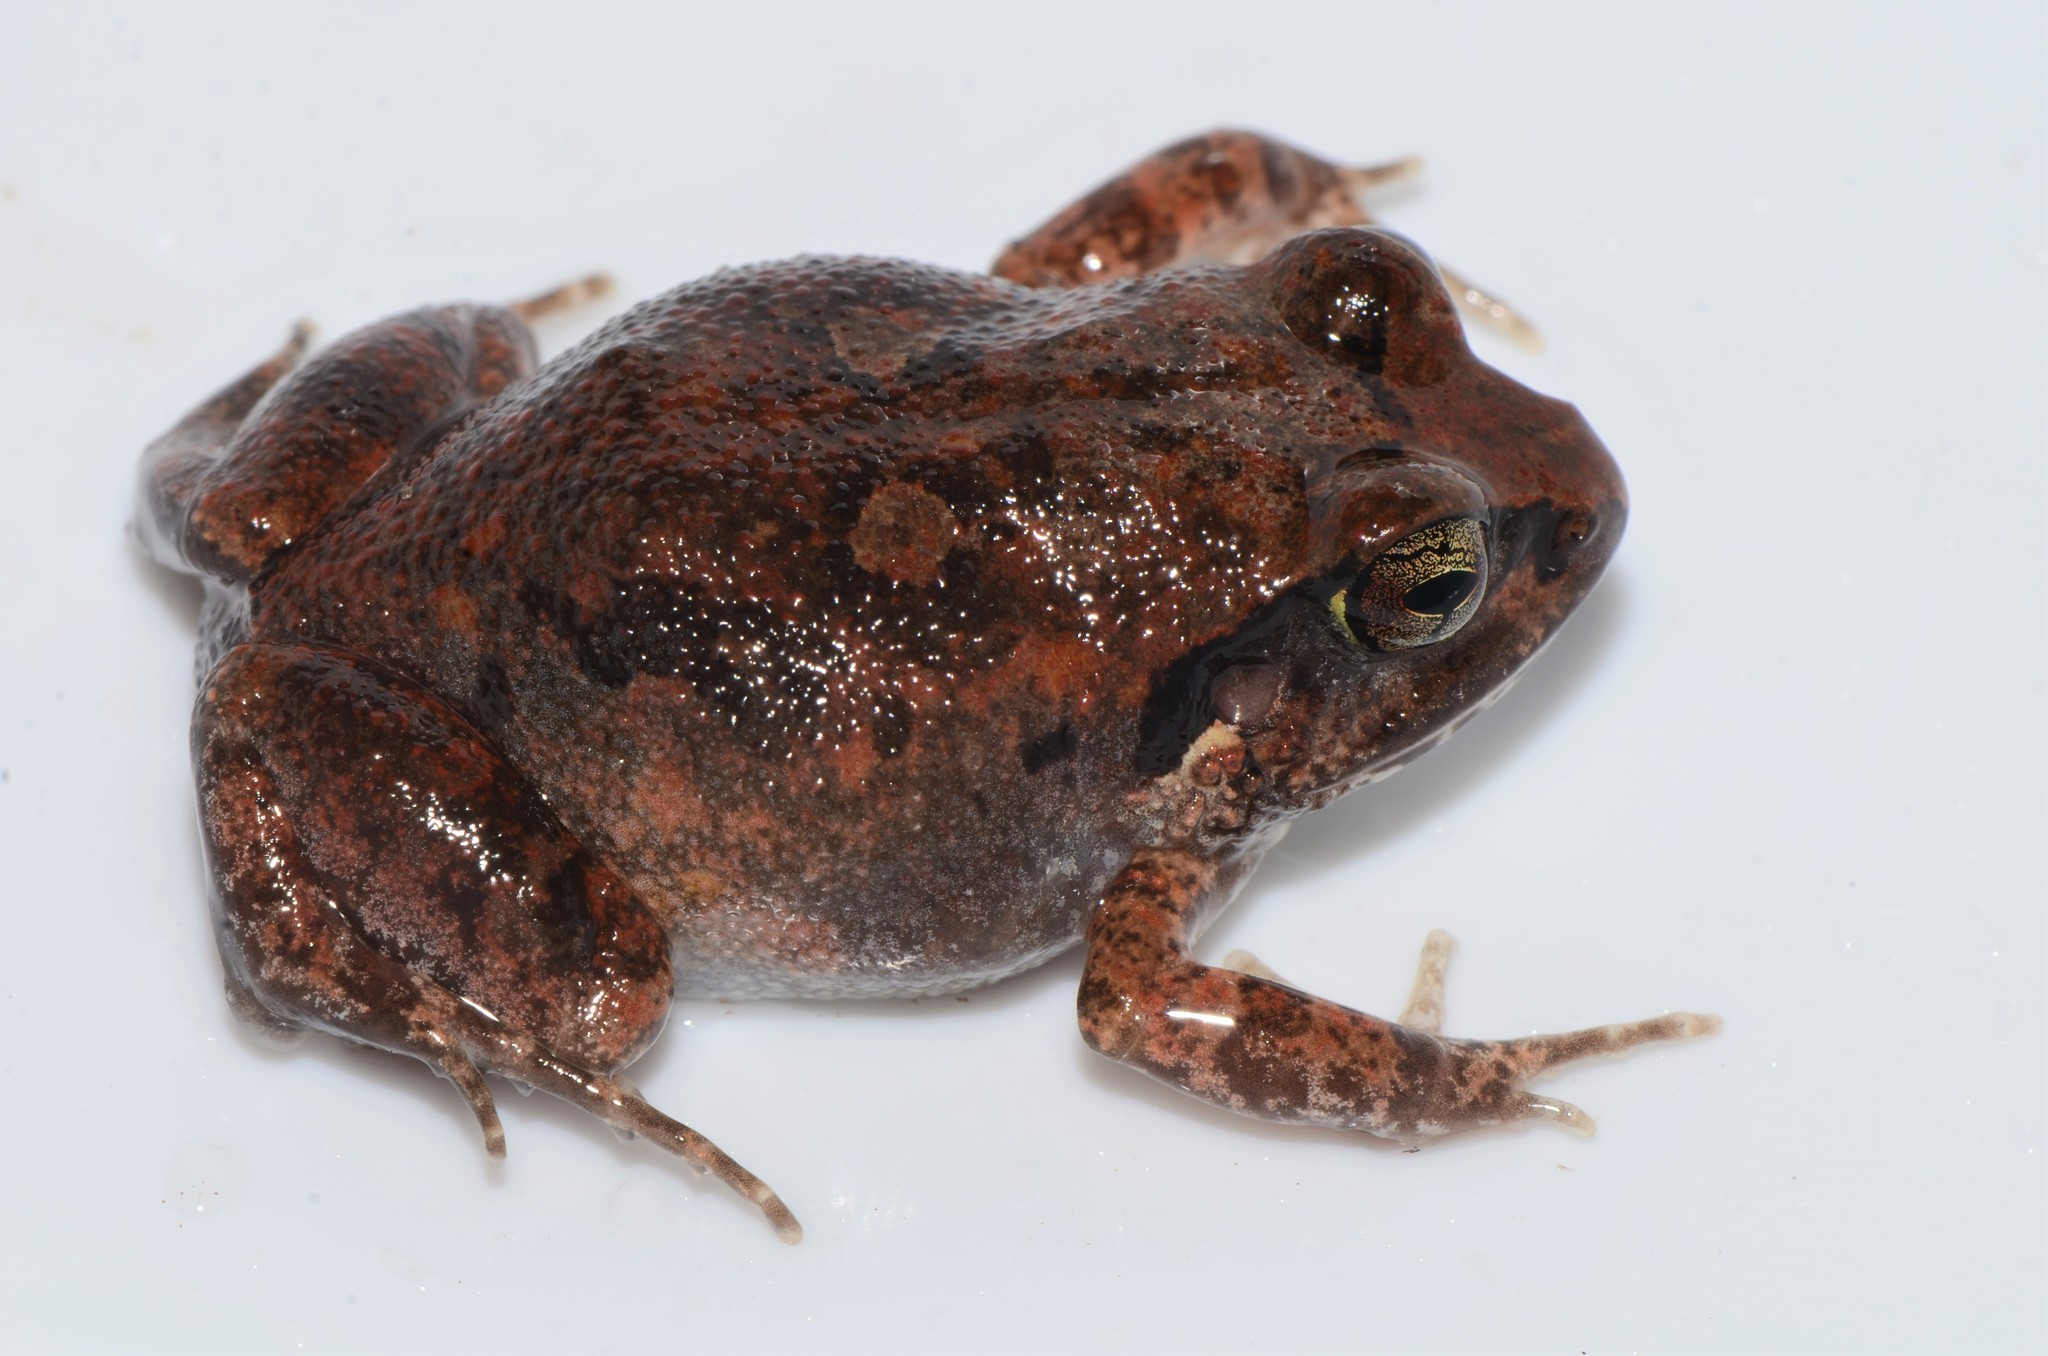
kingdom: Animalia
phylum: Chordata
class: Amphibia
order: Anura
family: Arthroleptidae
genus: Arthroleptis
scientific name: Arthroleptis stenodactylus
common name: Dune squeaker
